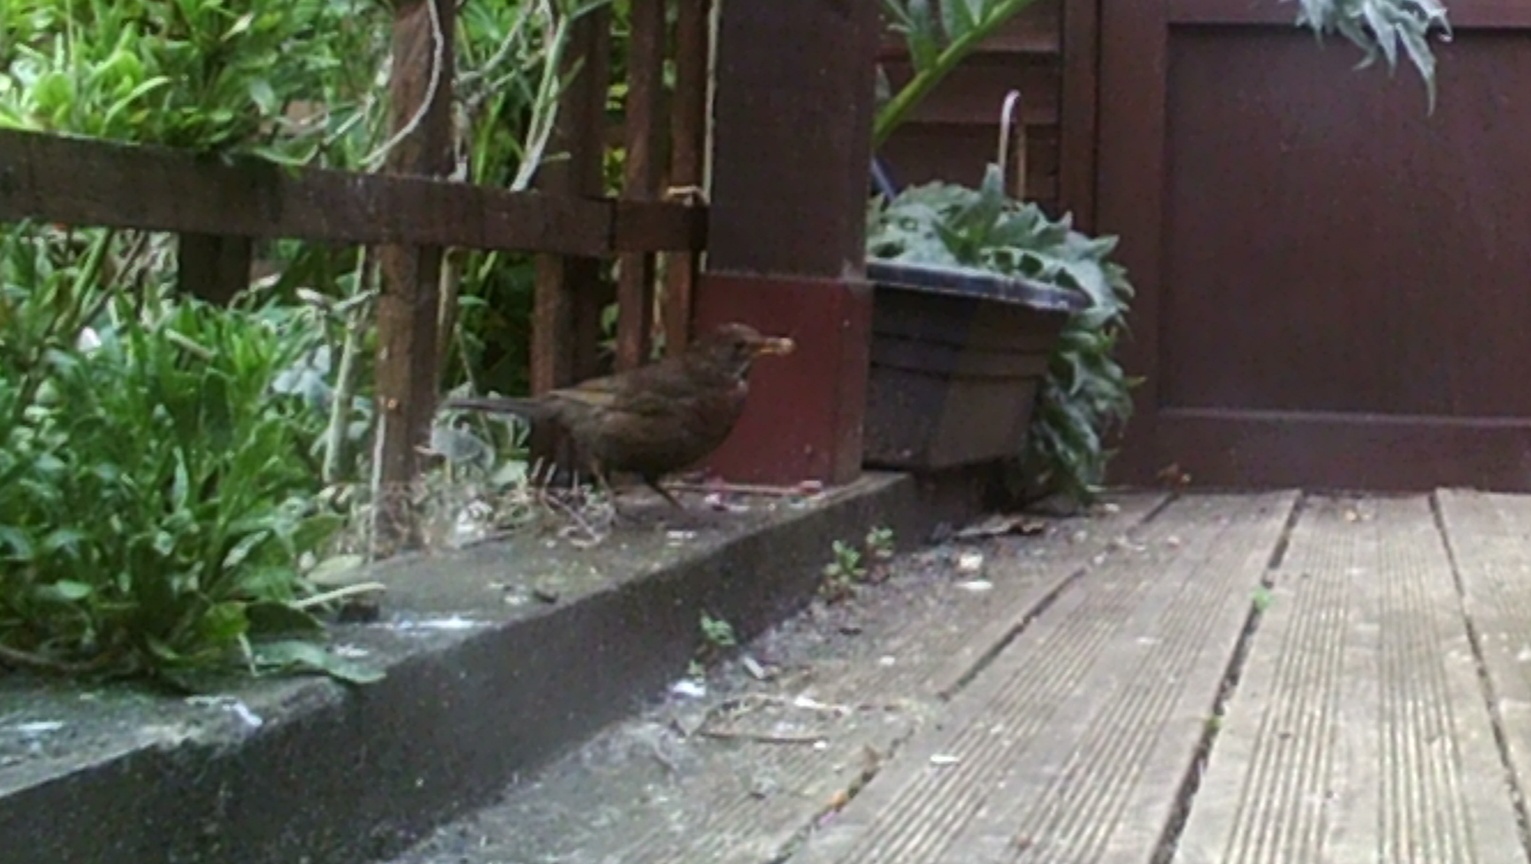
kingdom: Animalia
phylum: Chordata
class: Aves
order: Passeriformes
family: Turdidae
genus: Turdus
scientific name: Turdus merula
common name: Common blackbird
